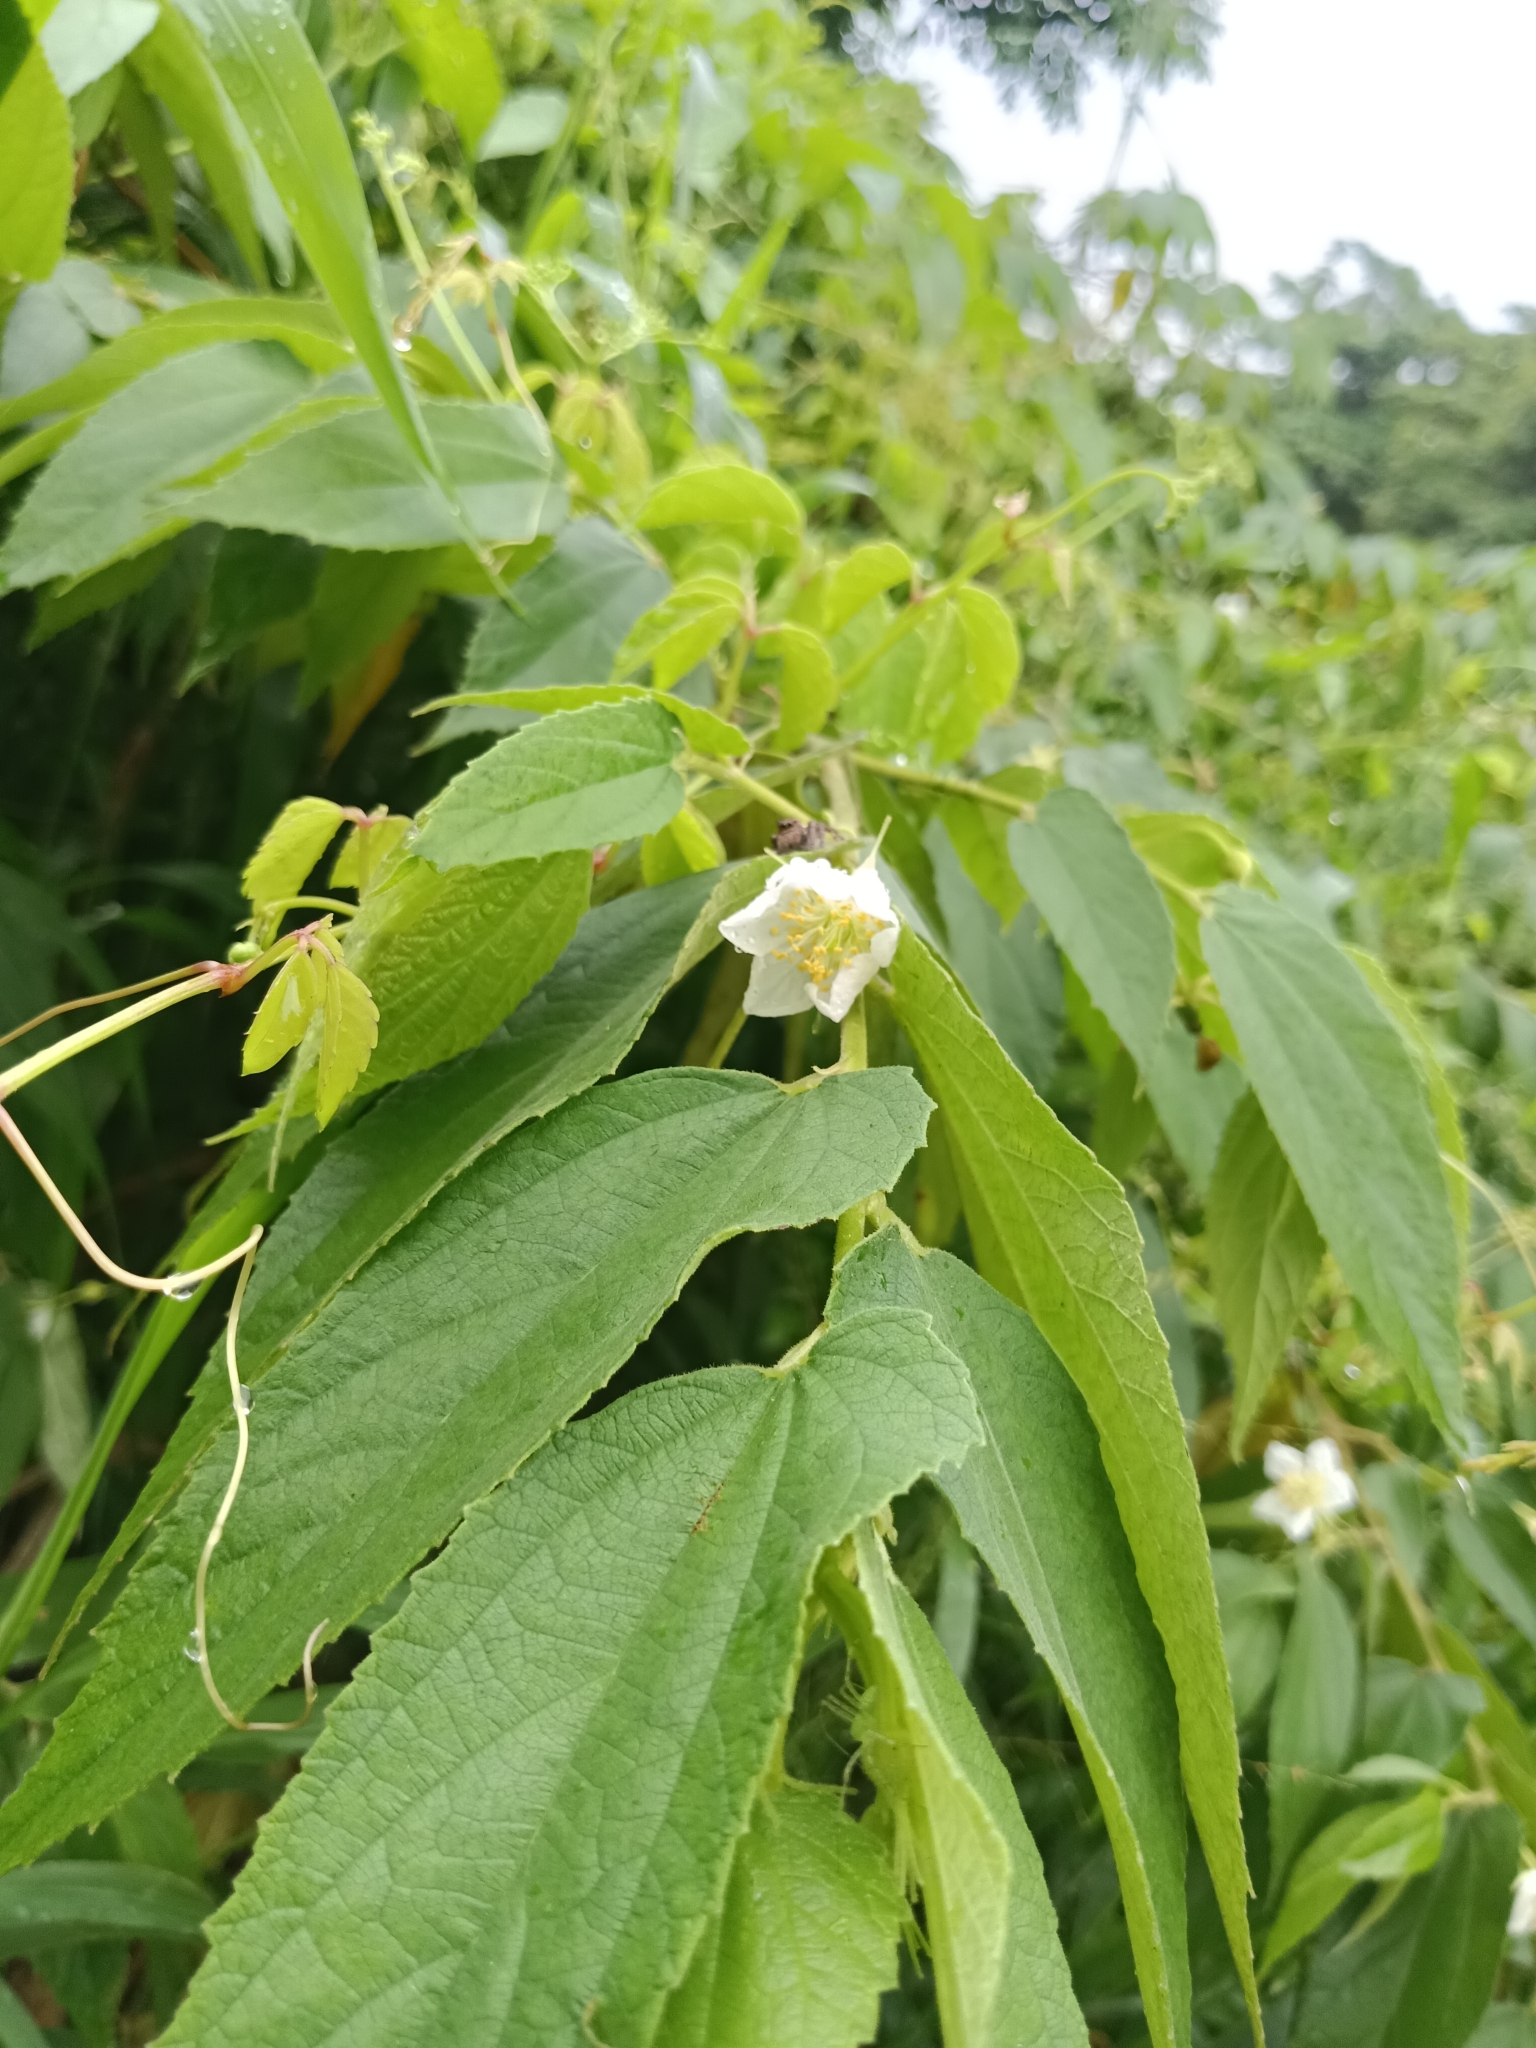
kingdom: Plantae
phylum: Tracheophyta
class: Magnoliopsida
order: Malvales
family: Muntingiaceae
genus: Muntingia
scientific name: Muntingia calabura
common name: Strawberrytree
